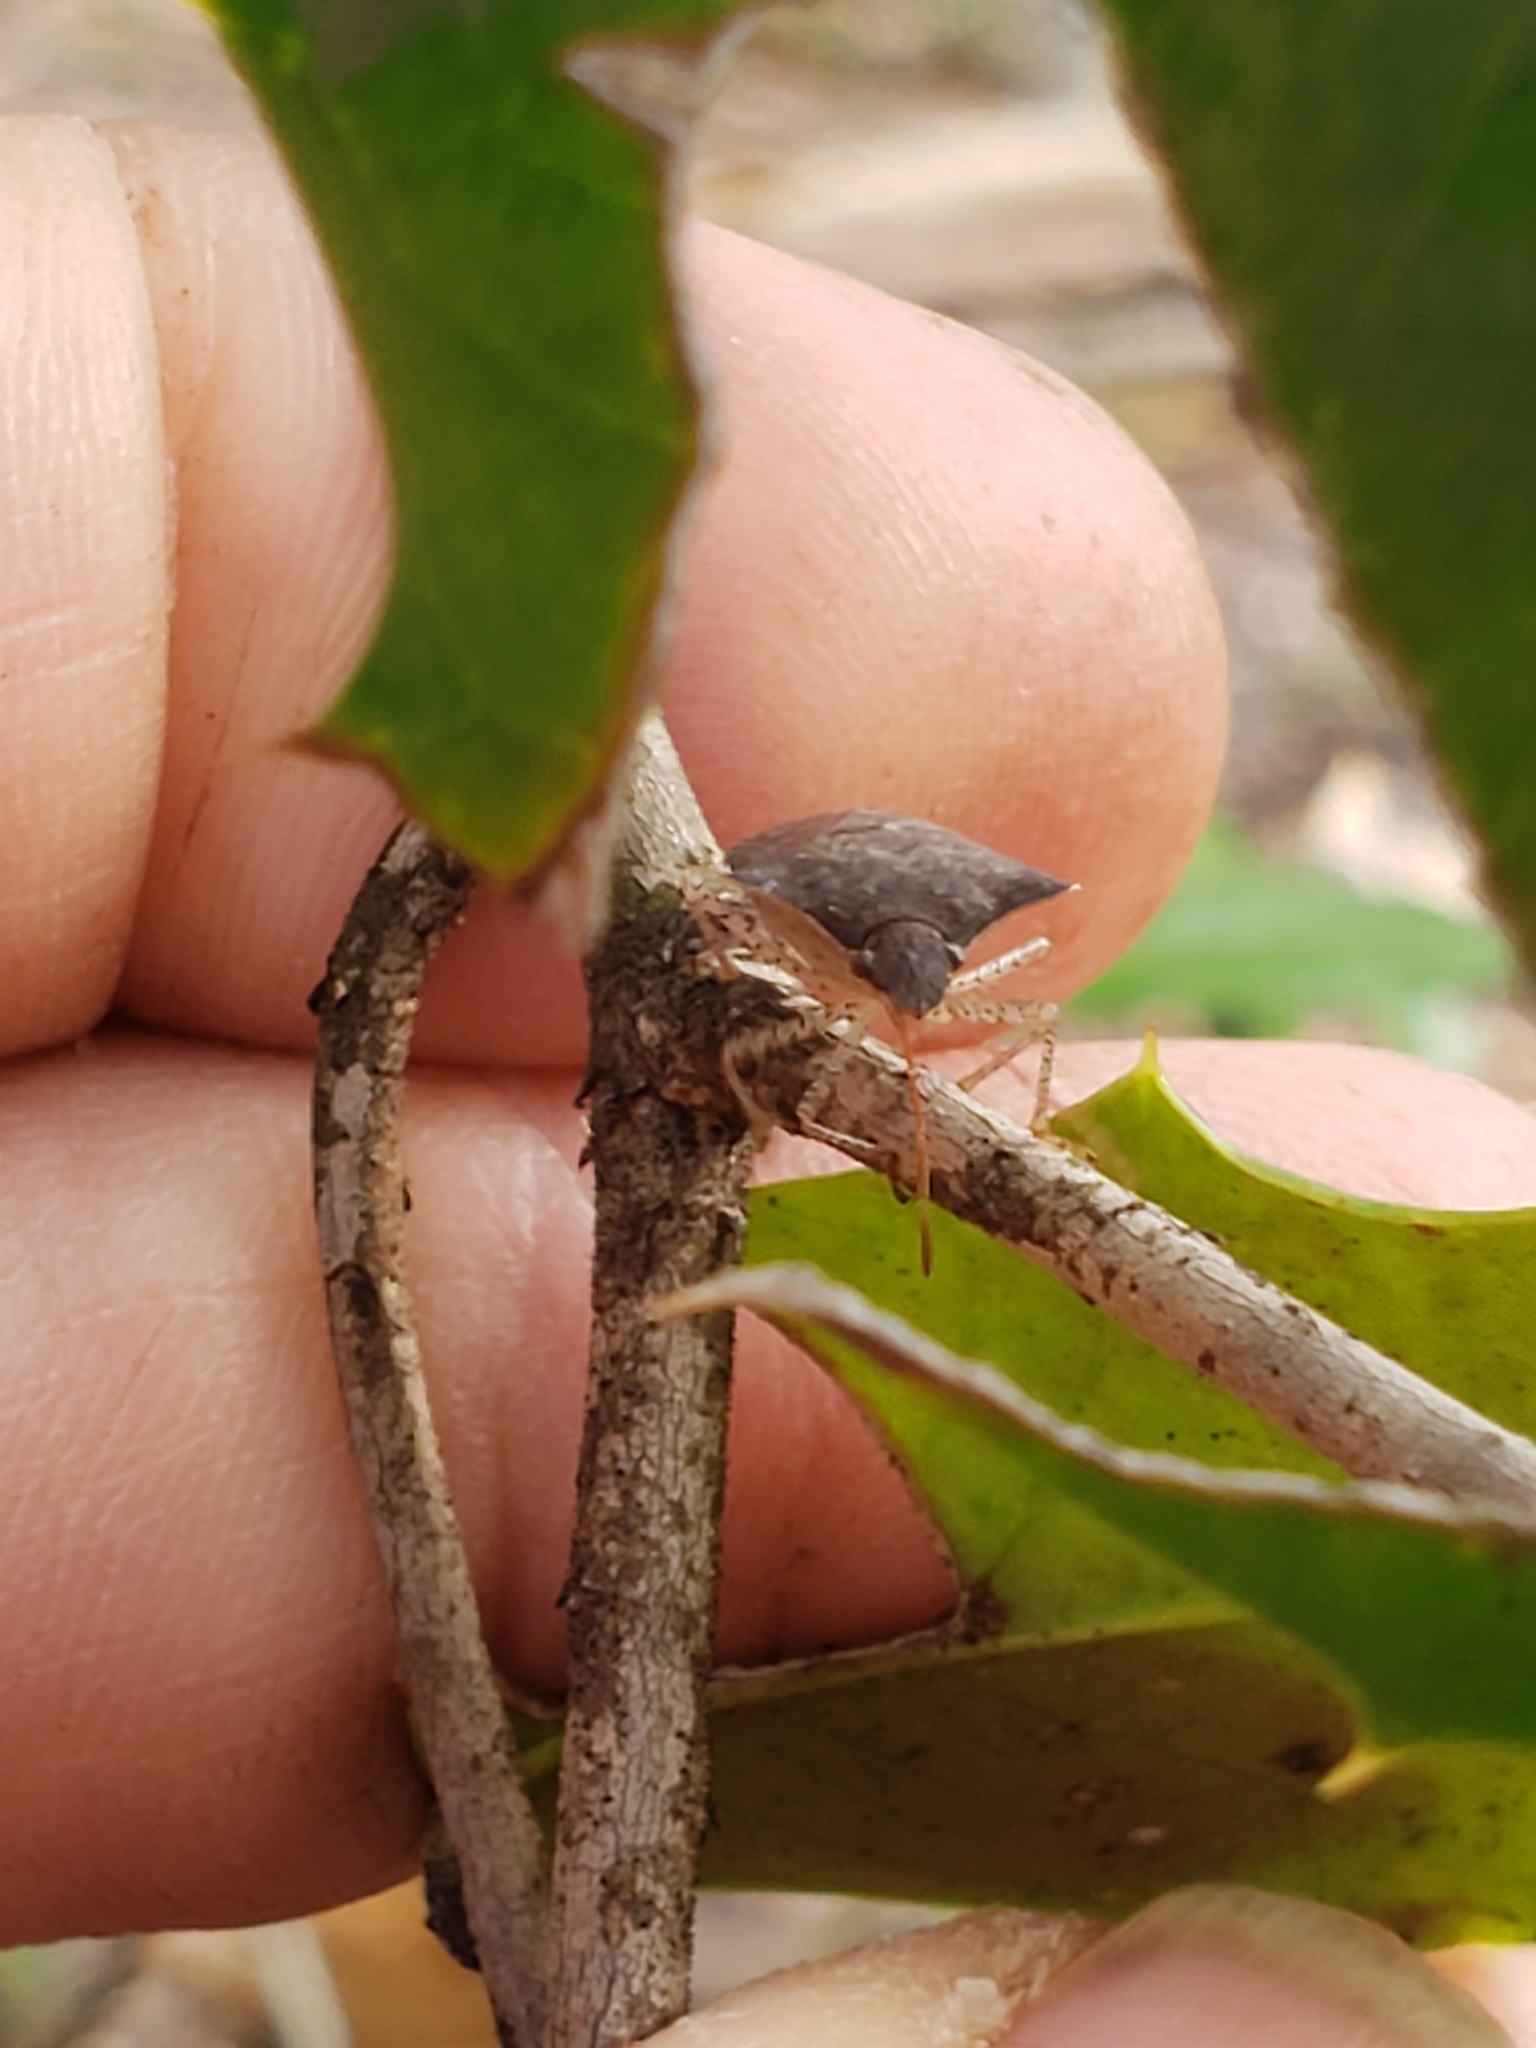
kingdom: Animalia
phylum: Arthropoda
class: Insecta
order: Hemiptera
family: Pentatomidae
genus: Euschistus
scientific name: Euschistus tristigmus
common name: Dusky stink bug
